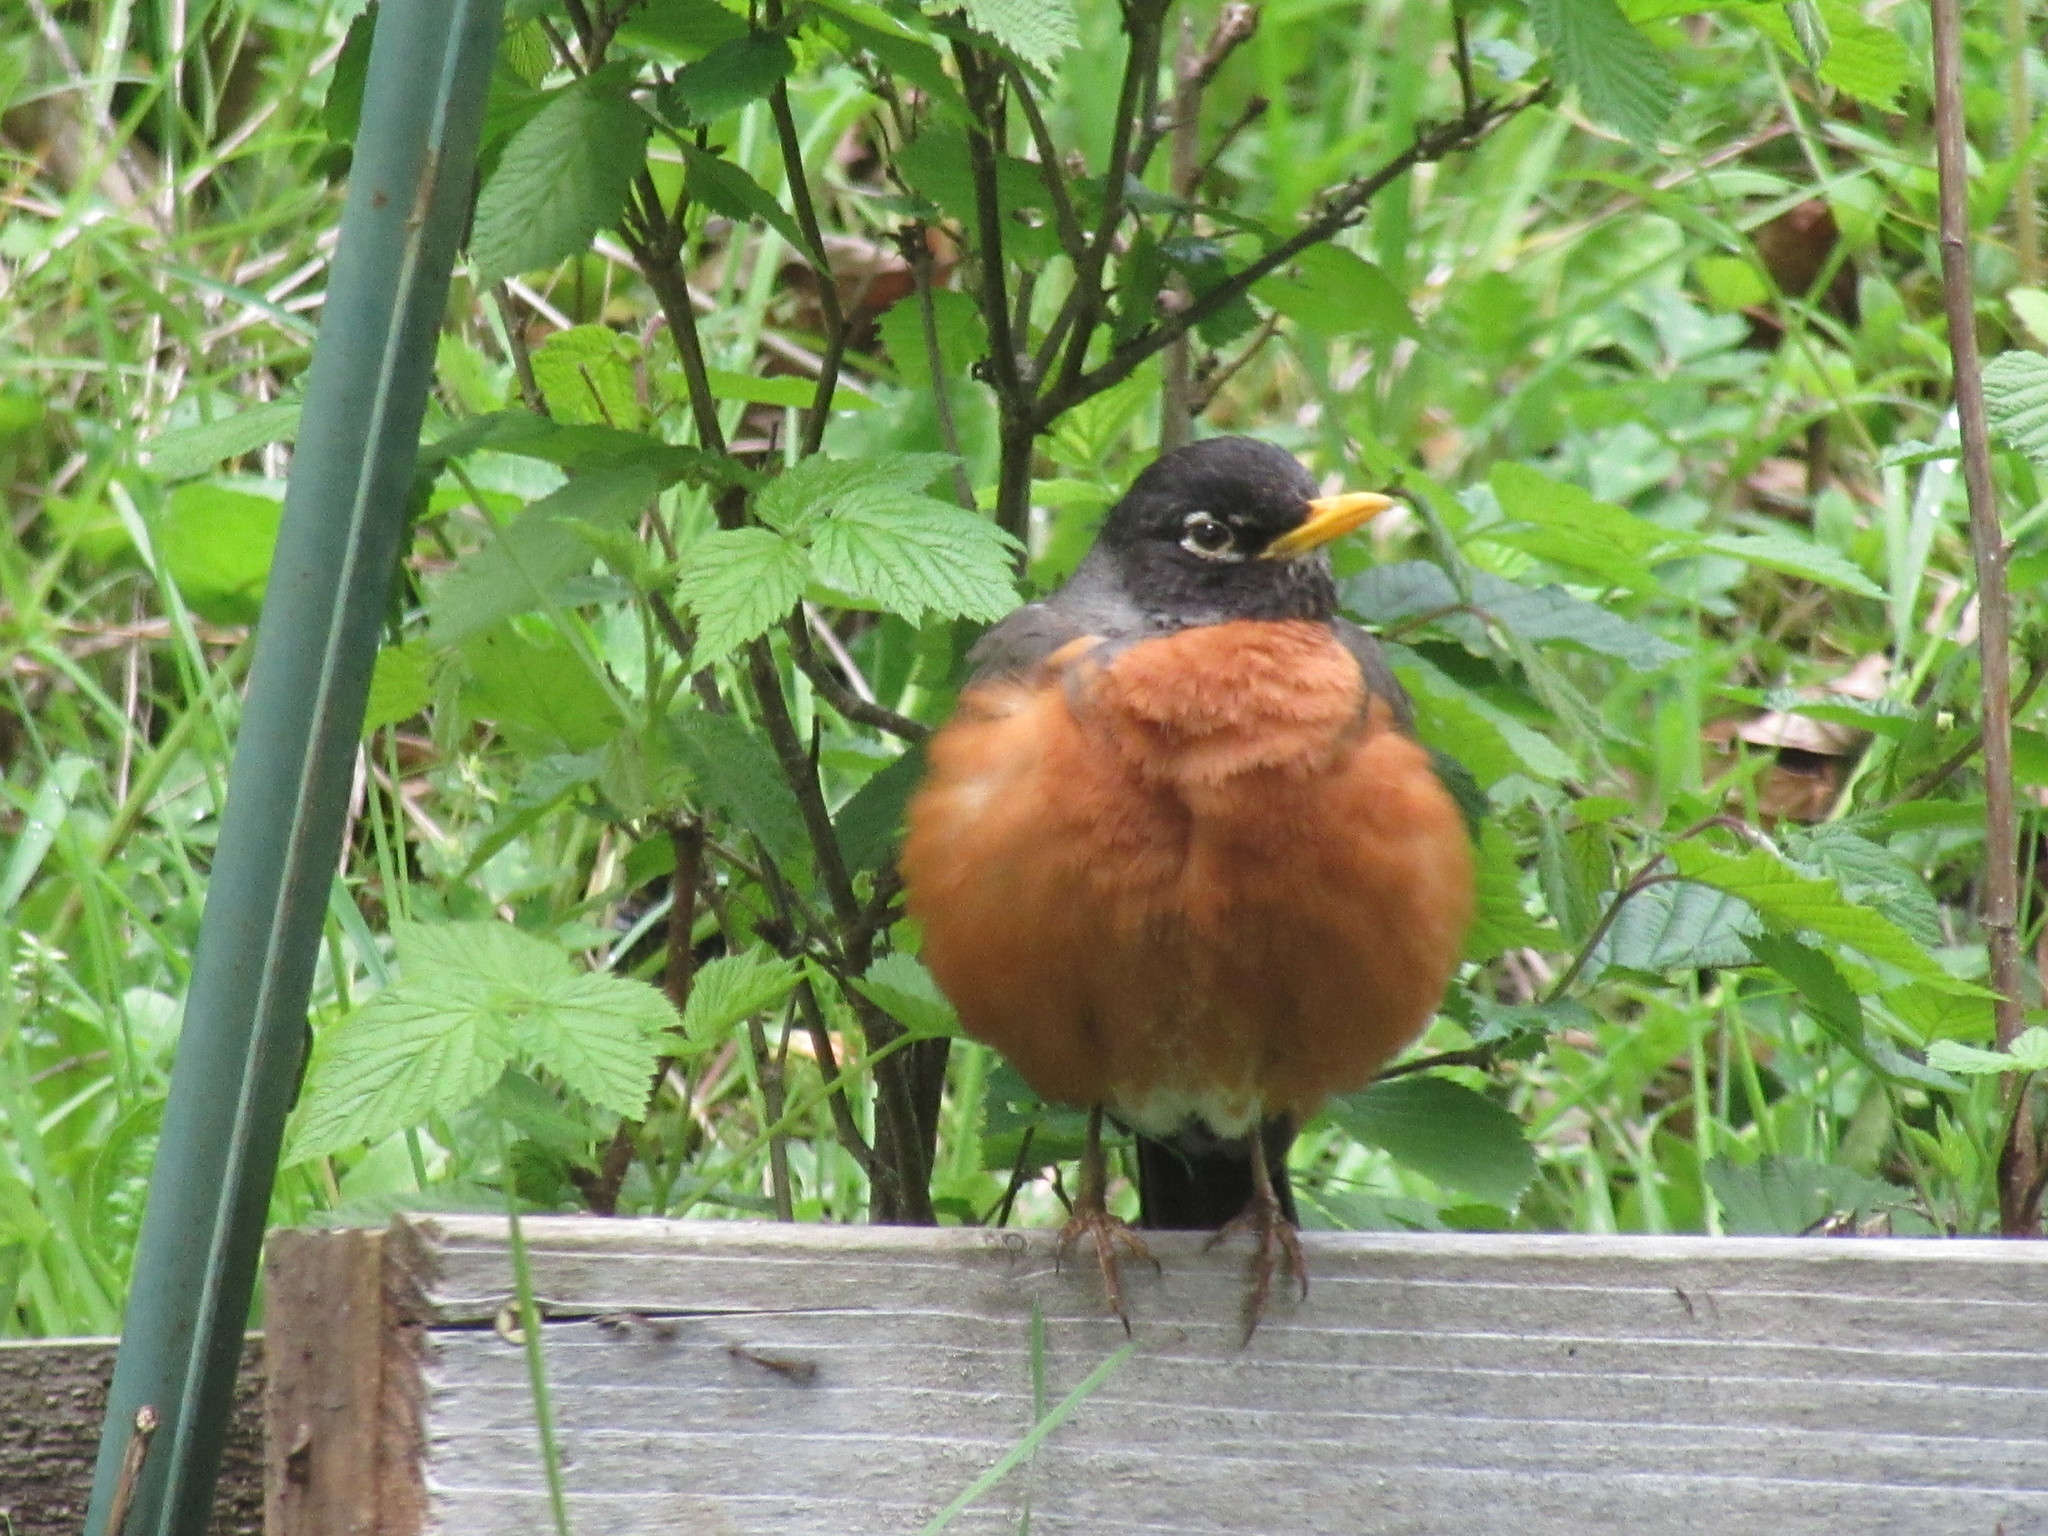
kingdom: Animalia
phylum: Chordata
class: Aves
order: Passeriformes
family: Turdidae
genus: Turdus
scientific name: Turdus migratorius
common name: American robin
